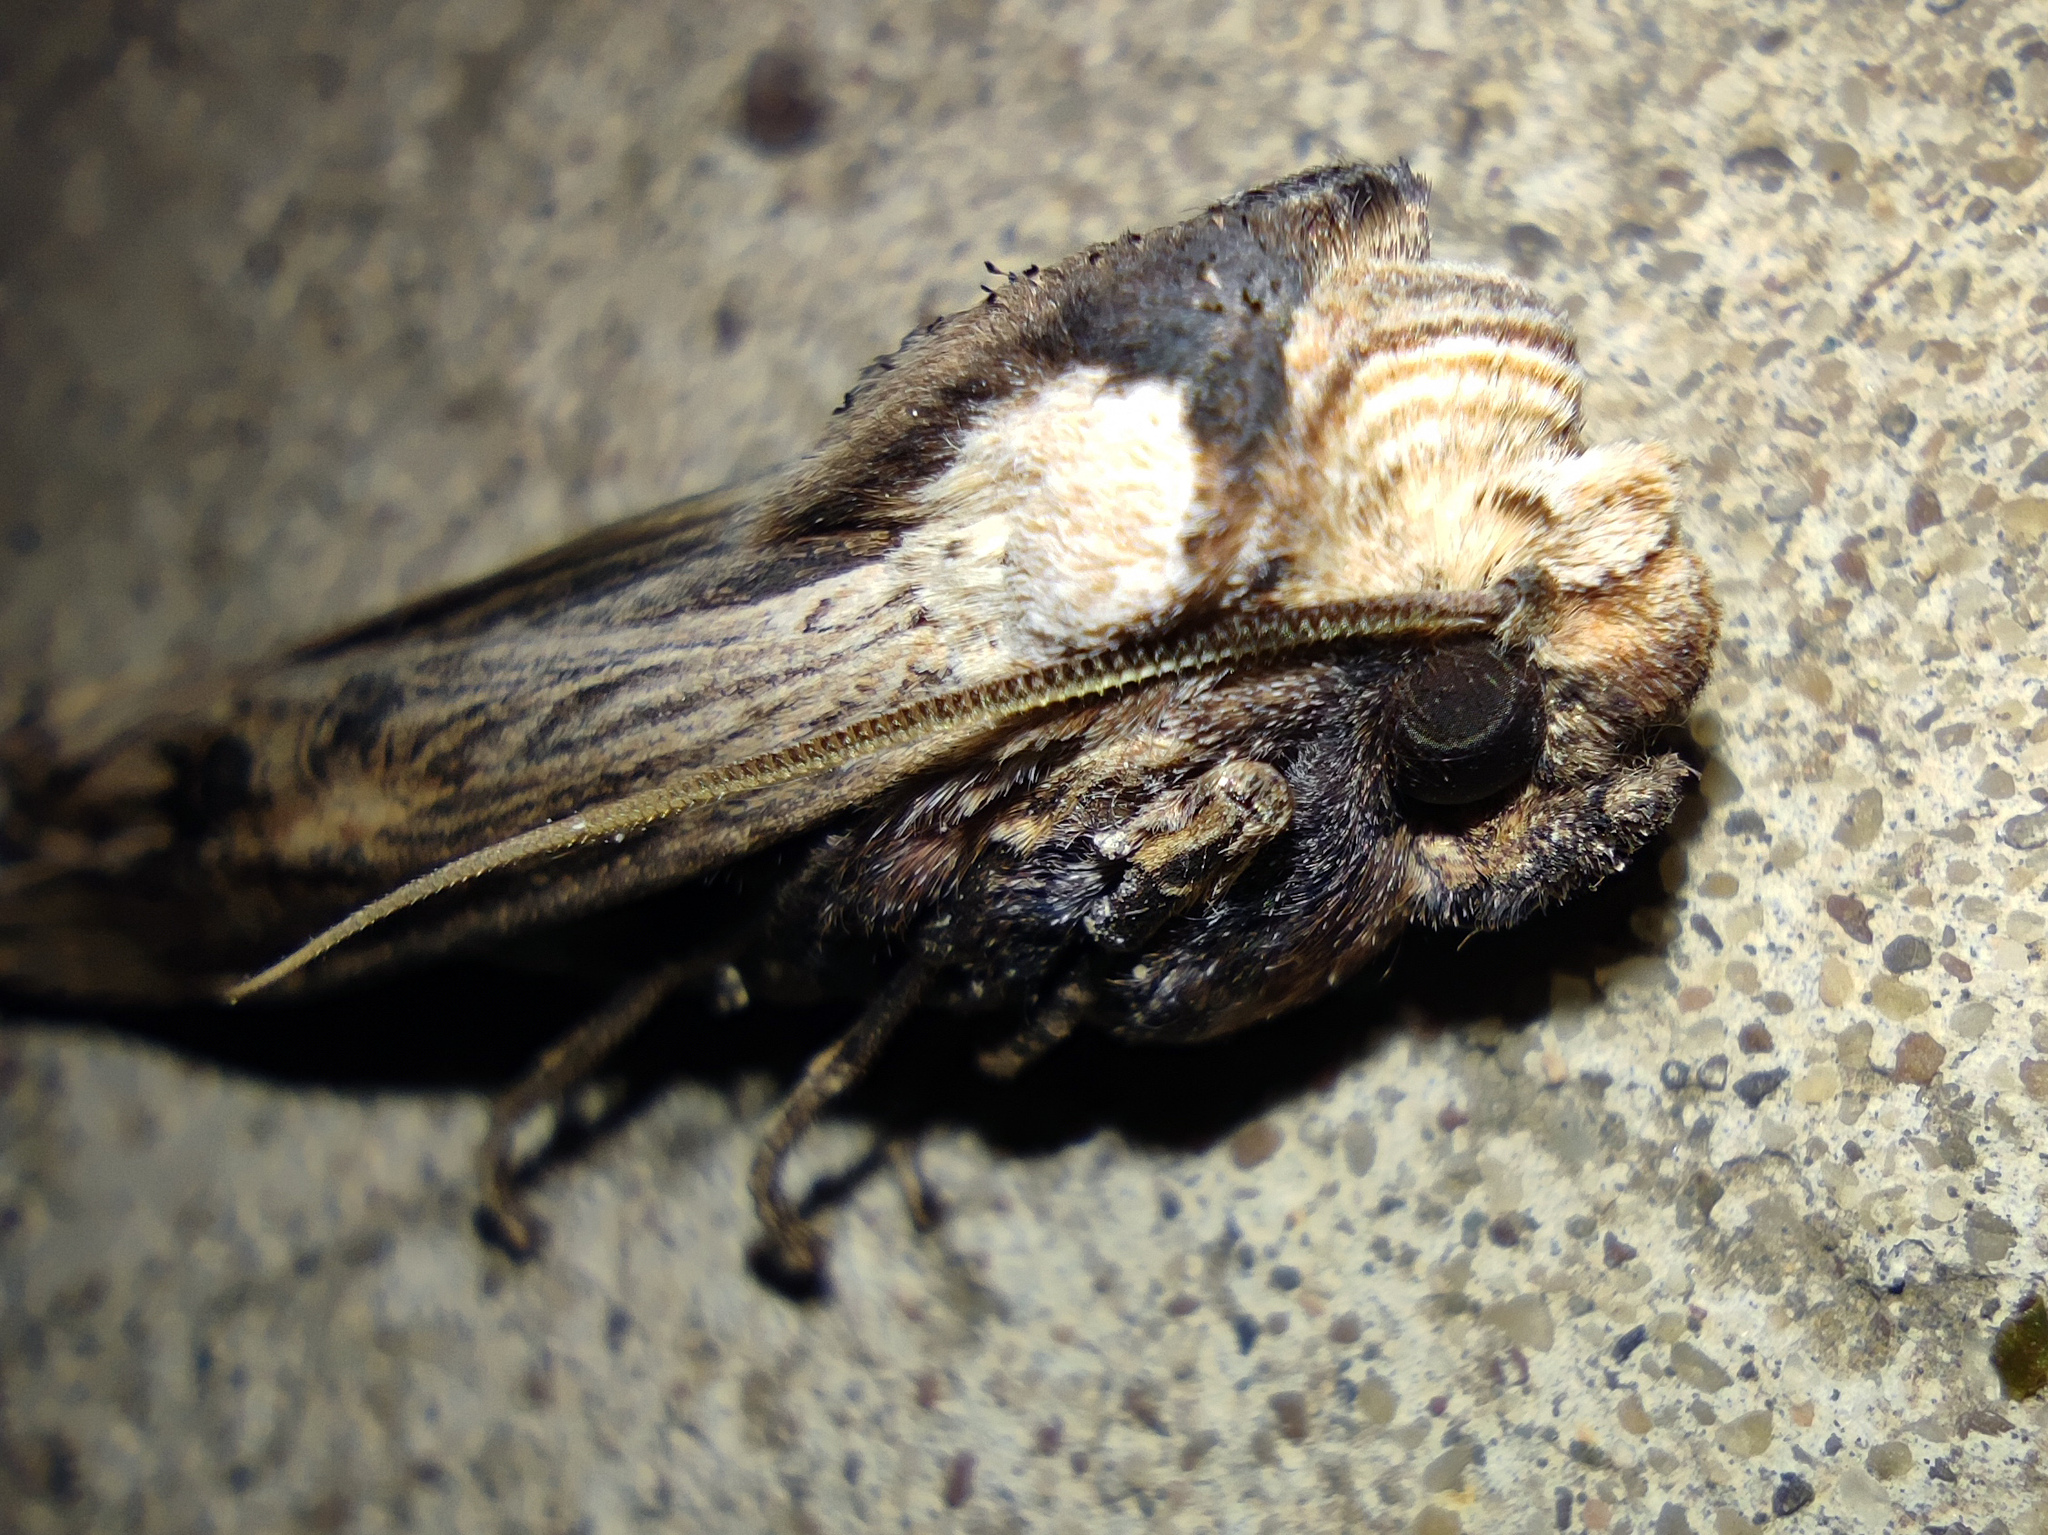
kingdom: Animalia
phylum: Arthropoda
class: Insecta
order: Lepidoptera
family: Noctuidae
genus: Xylena
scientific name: Xylena exsoleta
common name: Sword-grass
